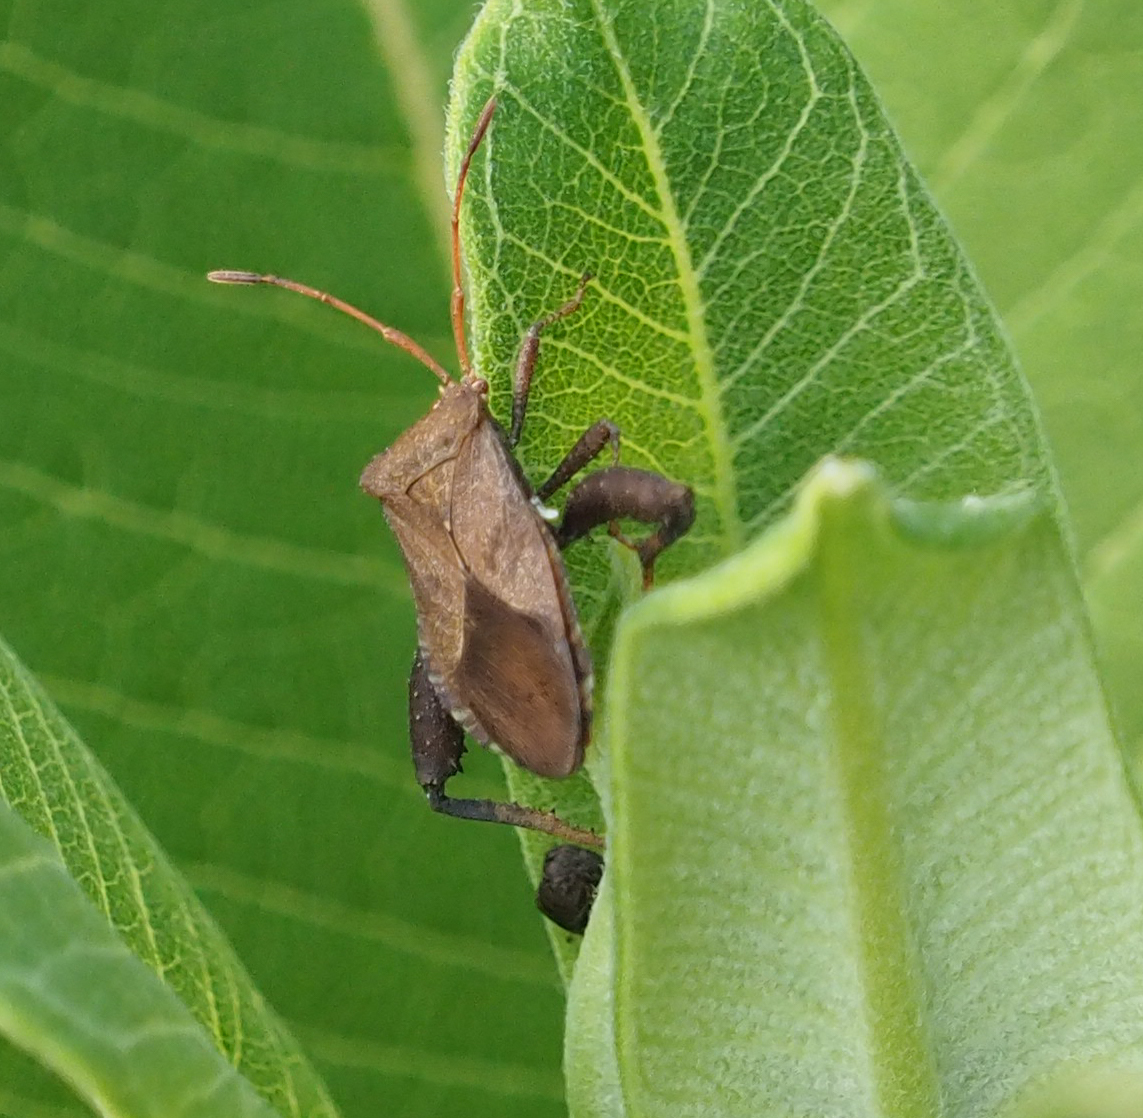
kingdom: Animalia
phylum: Arthropoda
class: Insecta
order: Hemiptera
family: Coreidae
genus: Euthochtha
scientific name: Euthochtha galeator
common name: Helmeted squash bug
